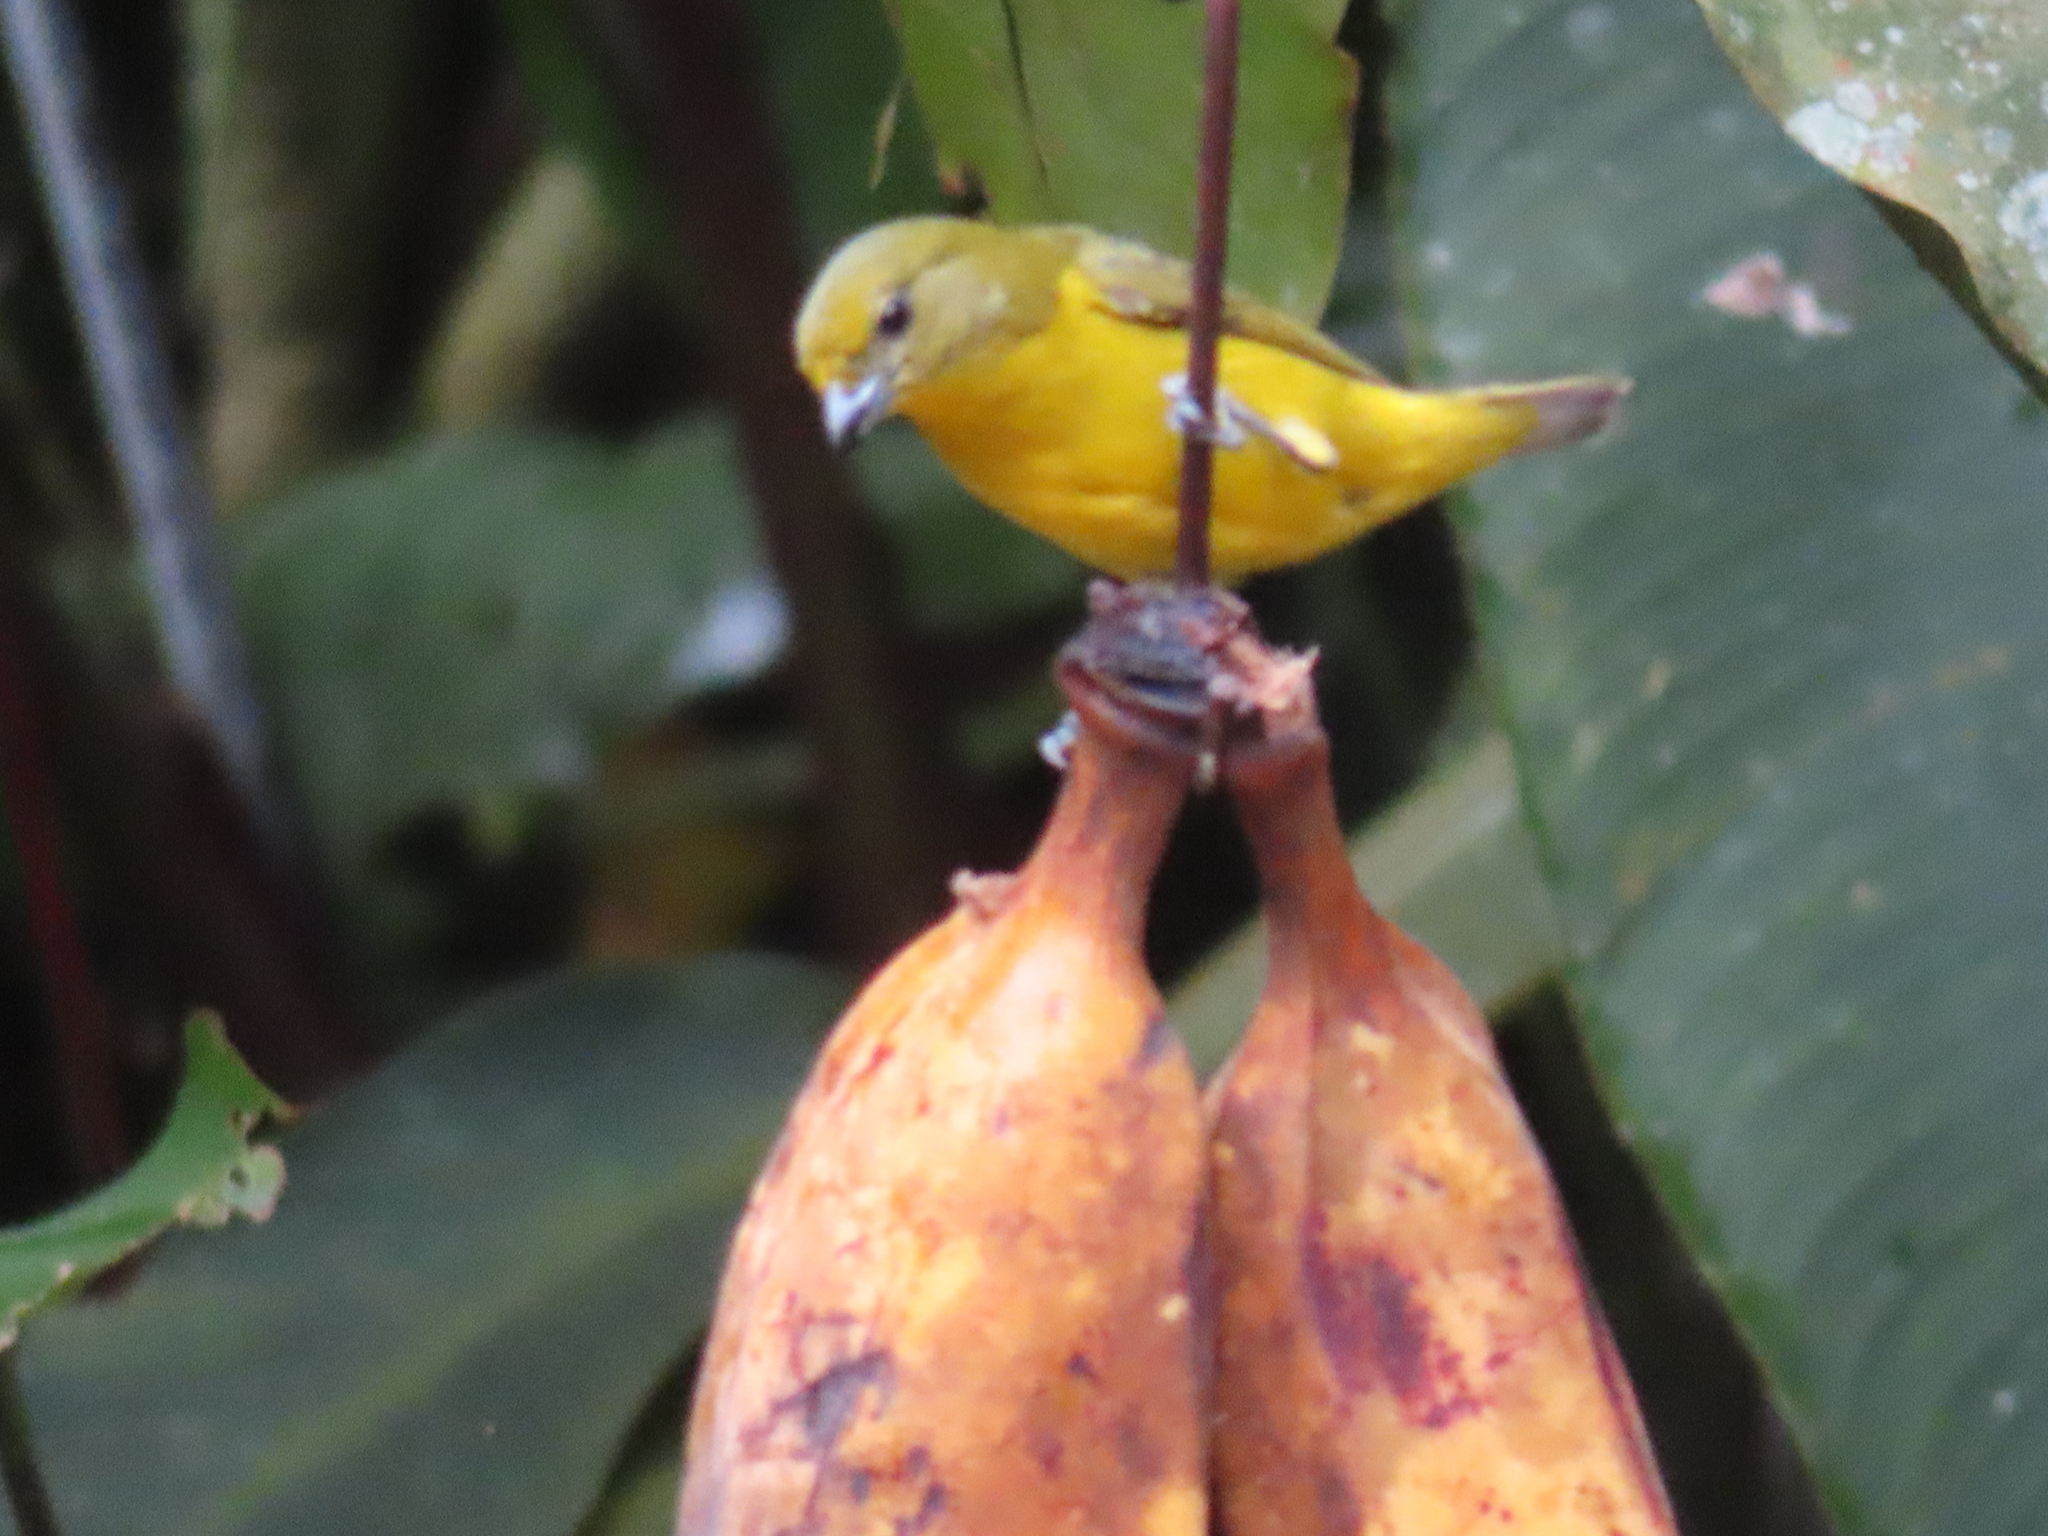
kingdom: Animalia
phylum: Chordata
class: Aves
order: Passeriformes
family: Fringillidae
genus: Euphonia
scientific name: Euphonia laniirostris
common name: Thick-billed euphonia
